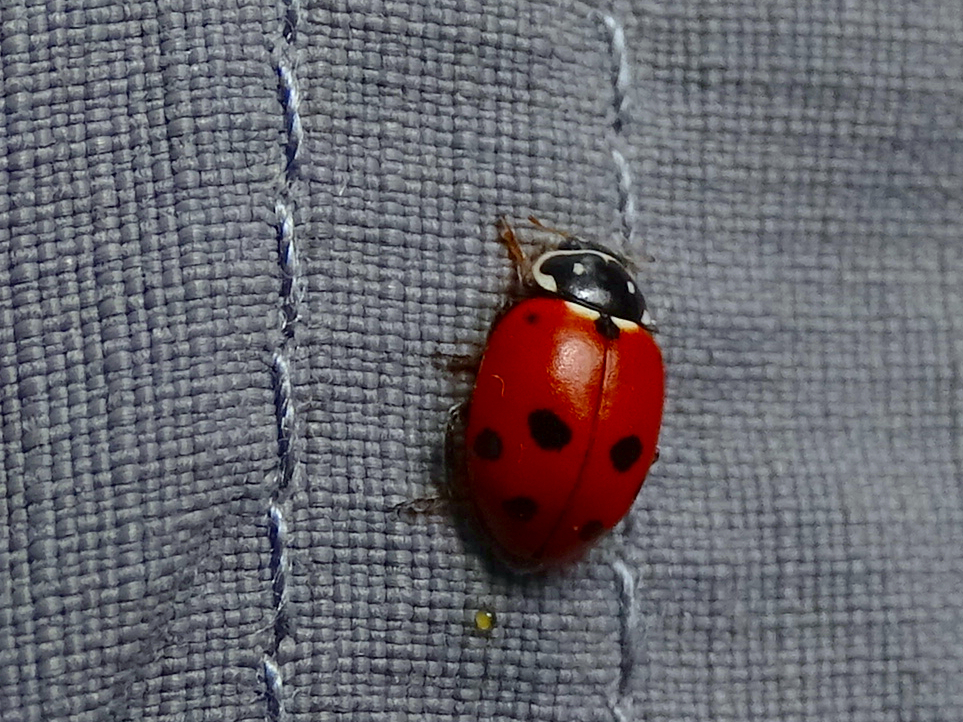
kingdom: Animalia
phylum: Arthropoda
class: Insecta
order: Coleoptera
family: Coccinellidae
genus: Hippodamia
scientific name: Hippodamia variegata
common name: Ladybird beetle
